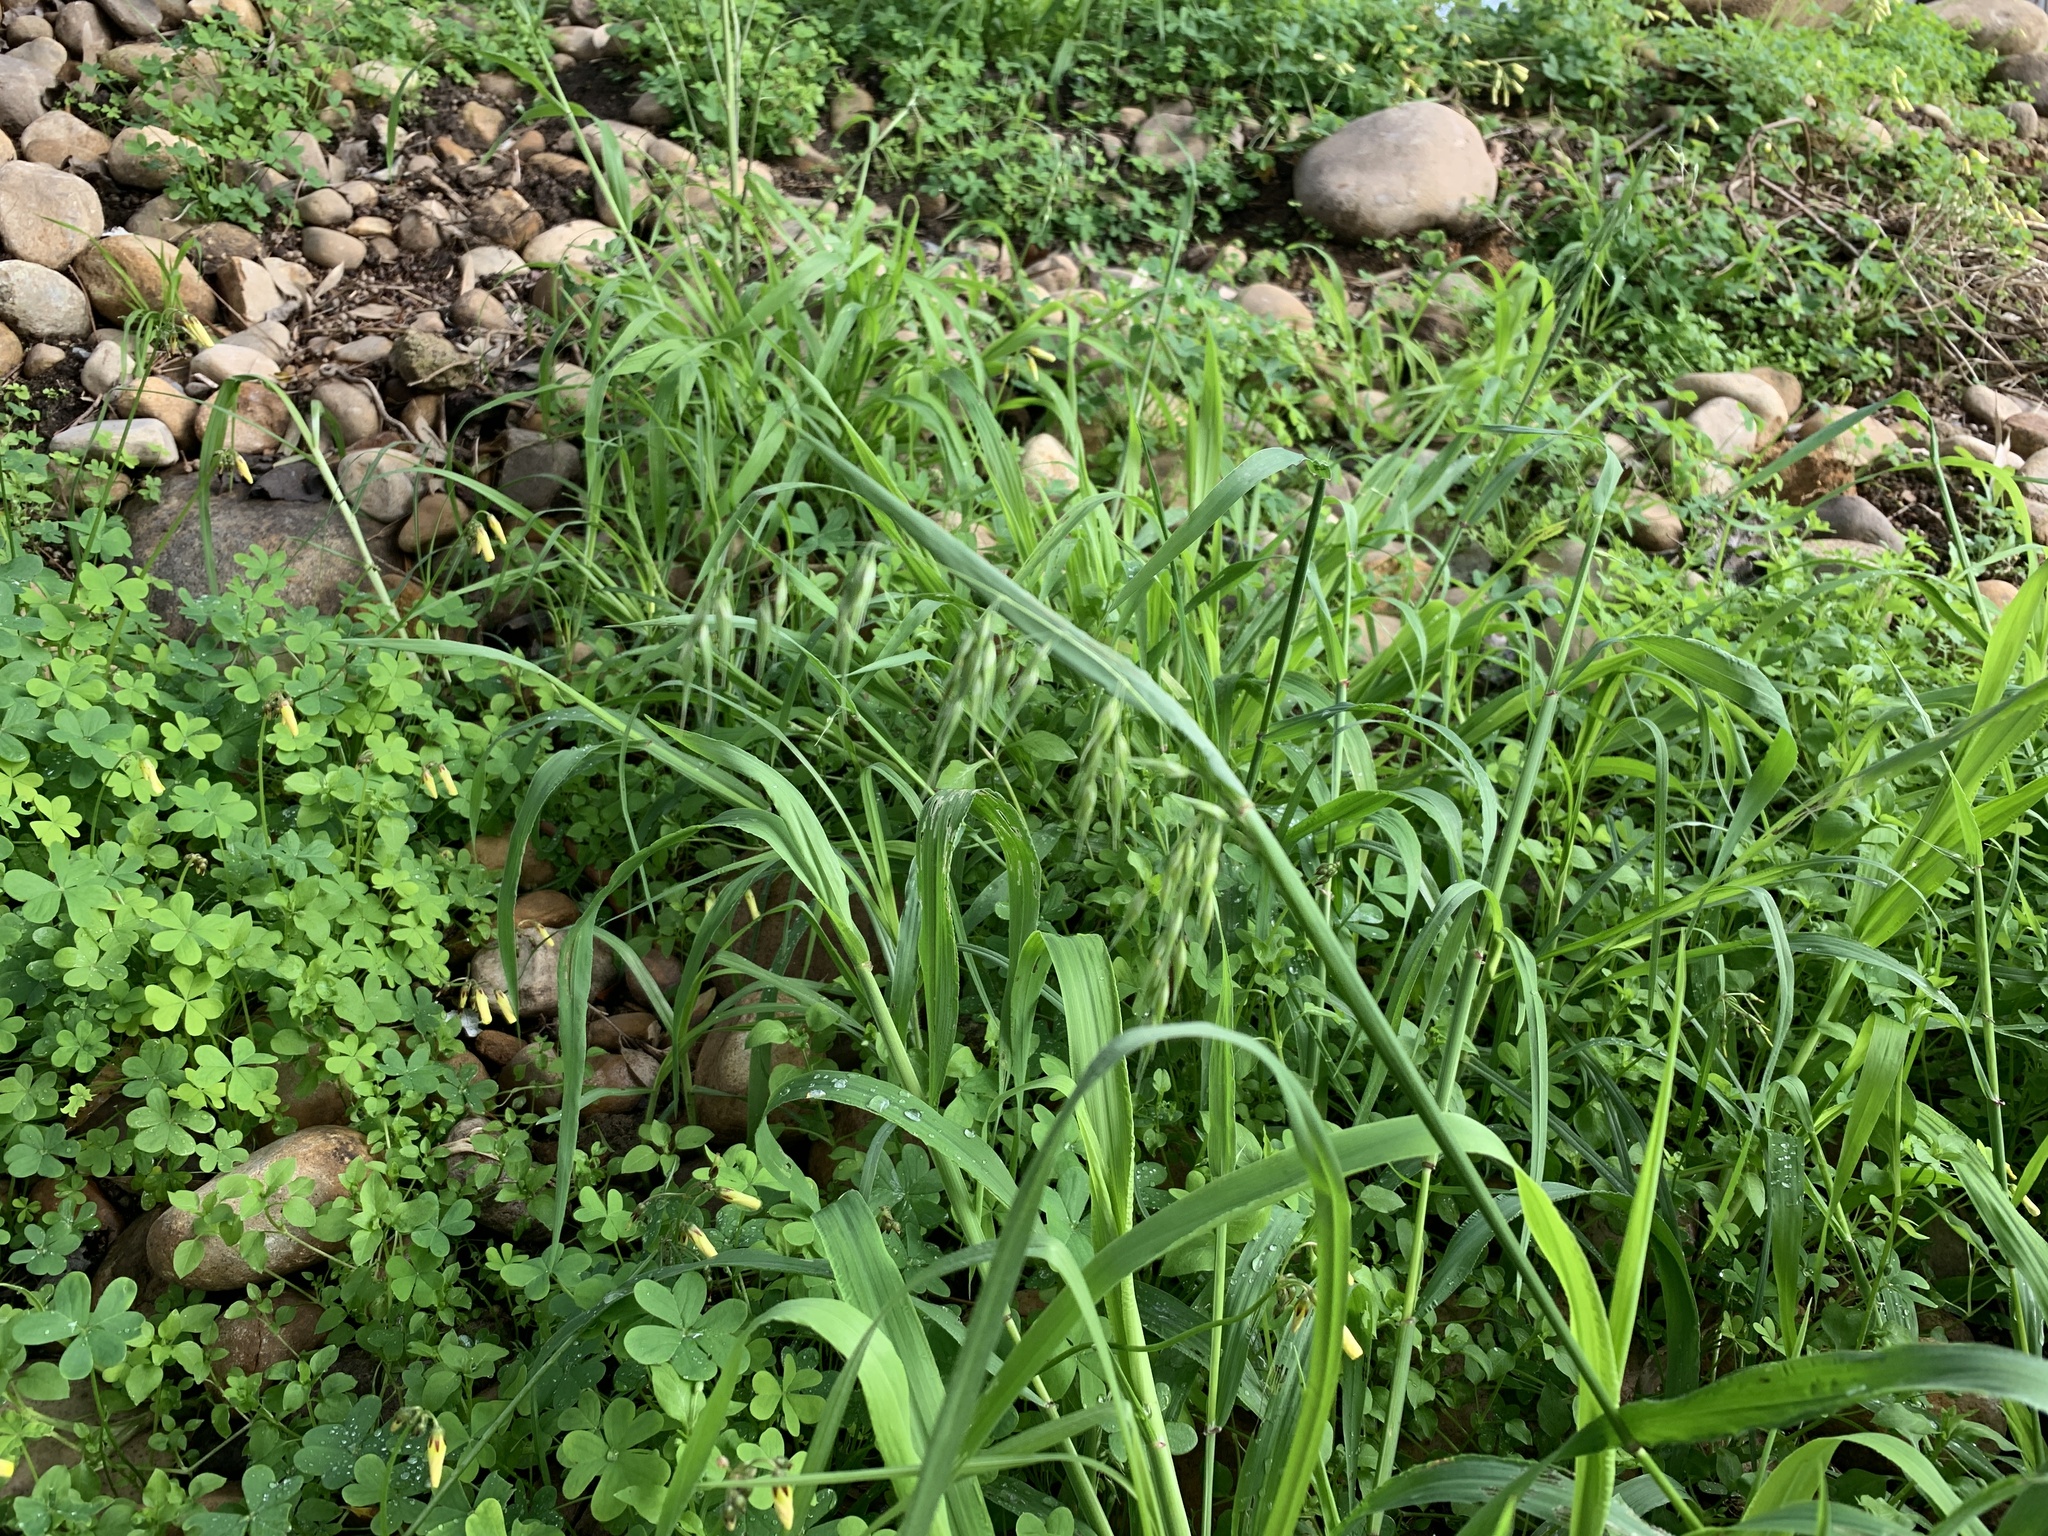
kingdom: Plantae
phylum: Tracheophyta
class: Liliopsida
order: Poales
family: Poaceae
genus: Ehrharta
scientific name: Ehrharta longiflora
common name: Longflowered veldtgrass
